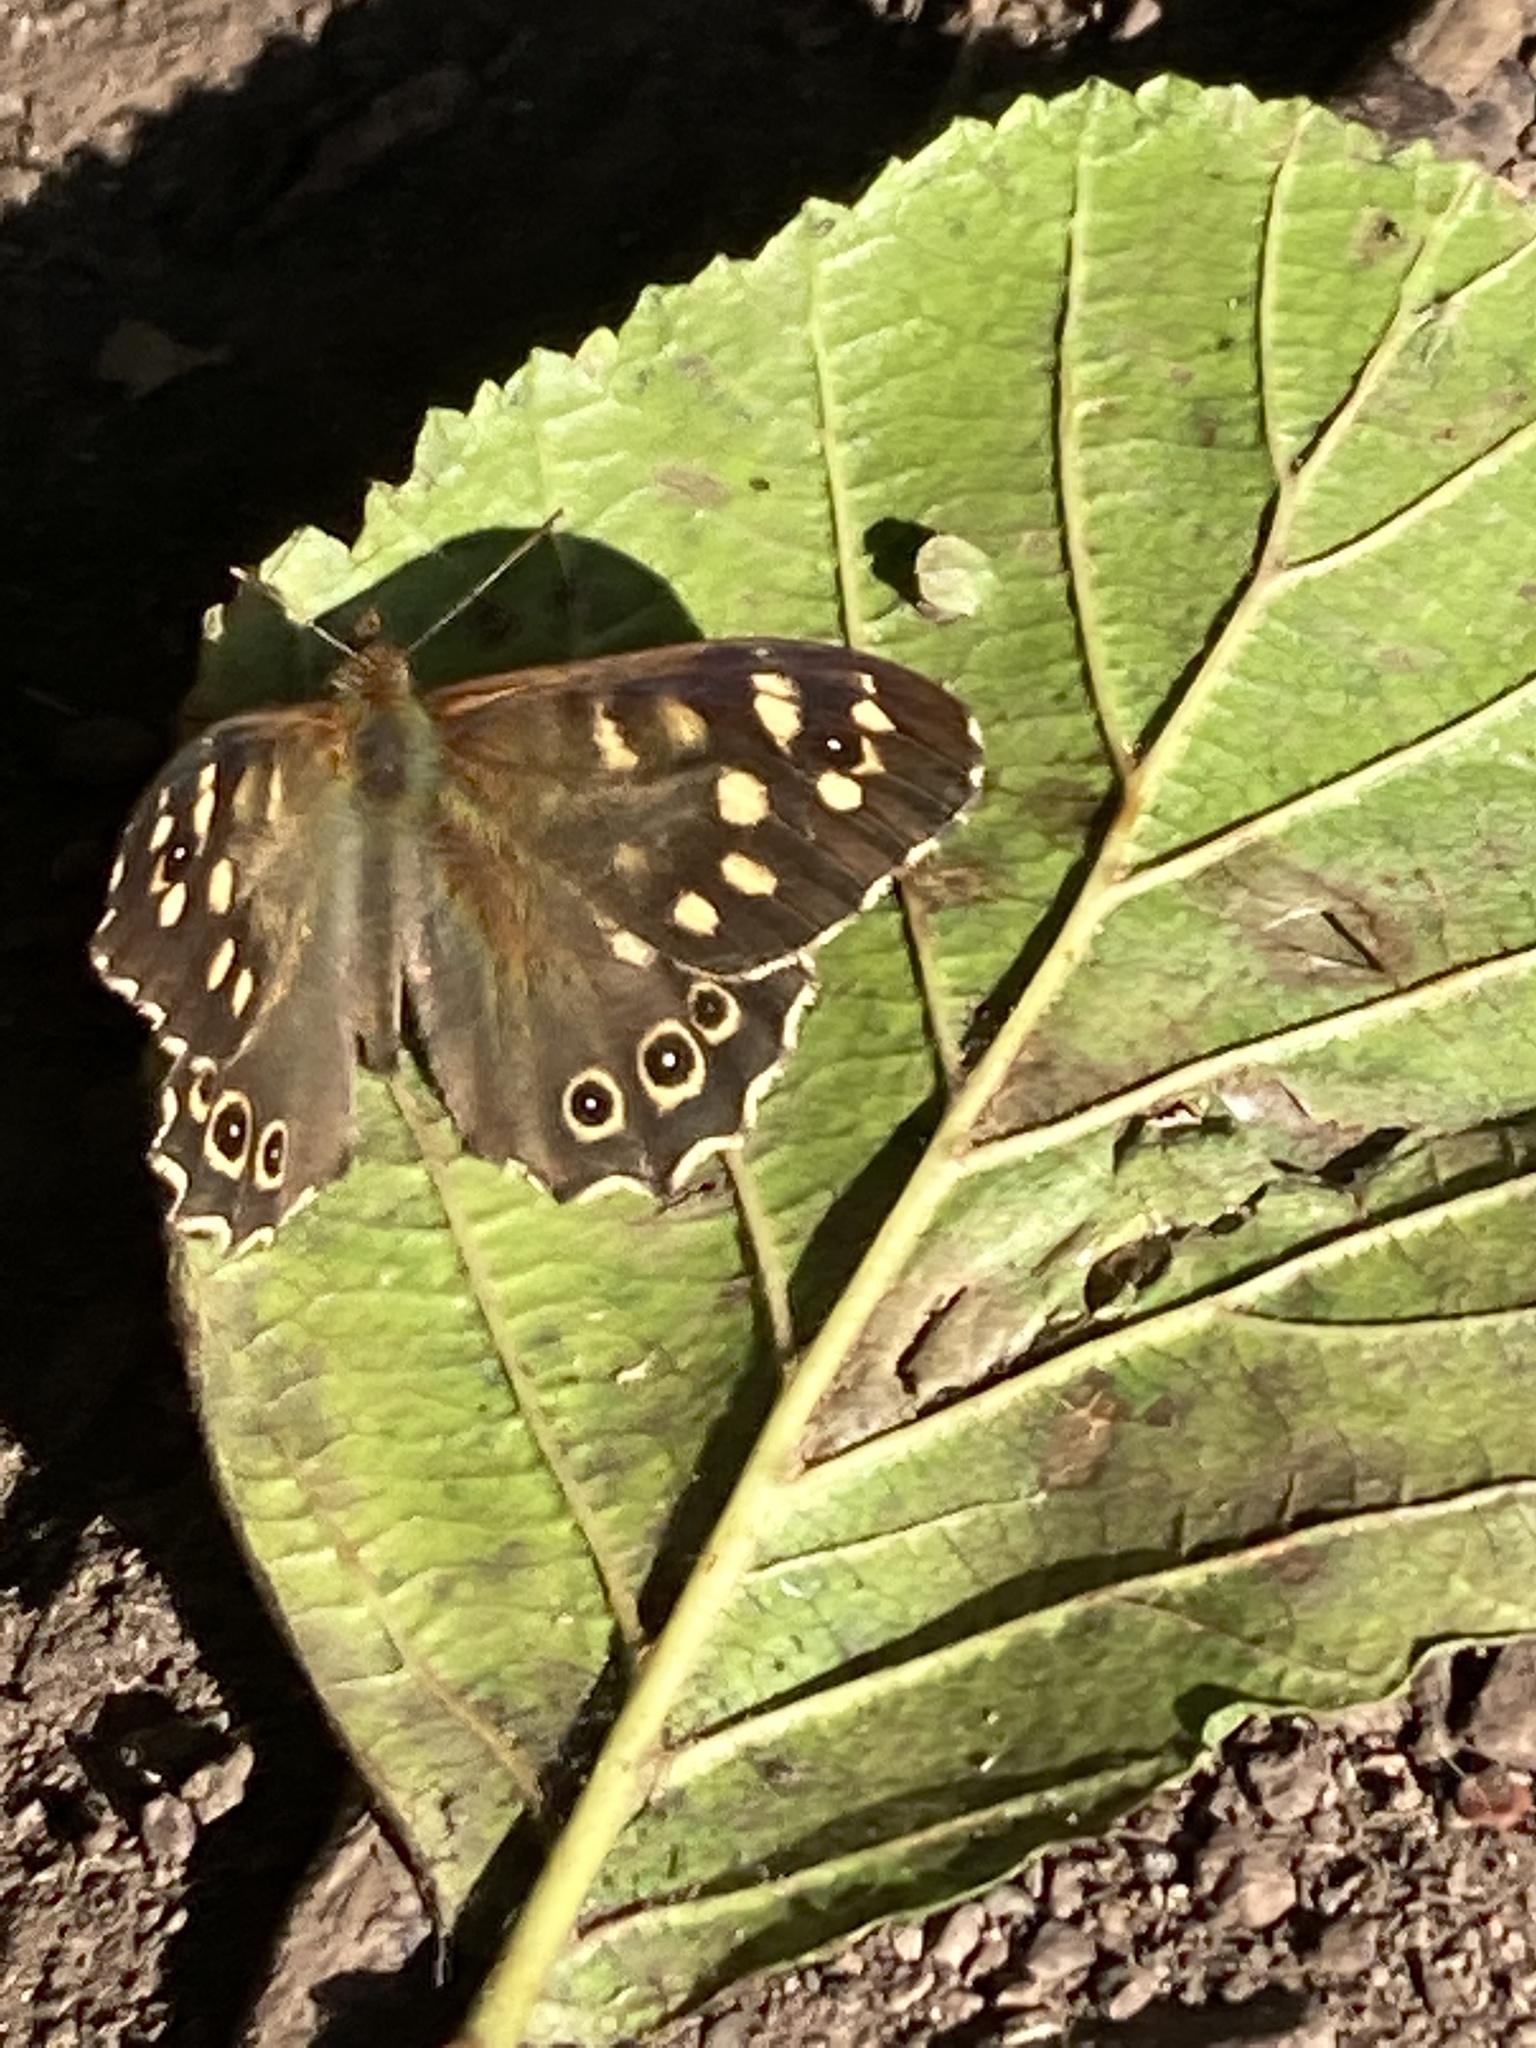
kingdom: Animalia
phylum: Arthropoda
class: Insecta
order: Lepidoptera
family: Nymphalidae
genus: Pararge
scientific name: Pararge aegeria
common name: Speckled wood
